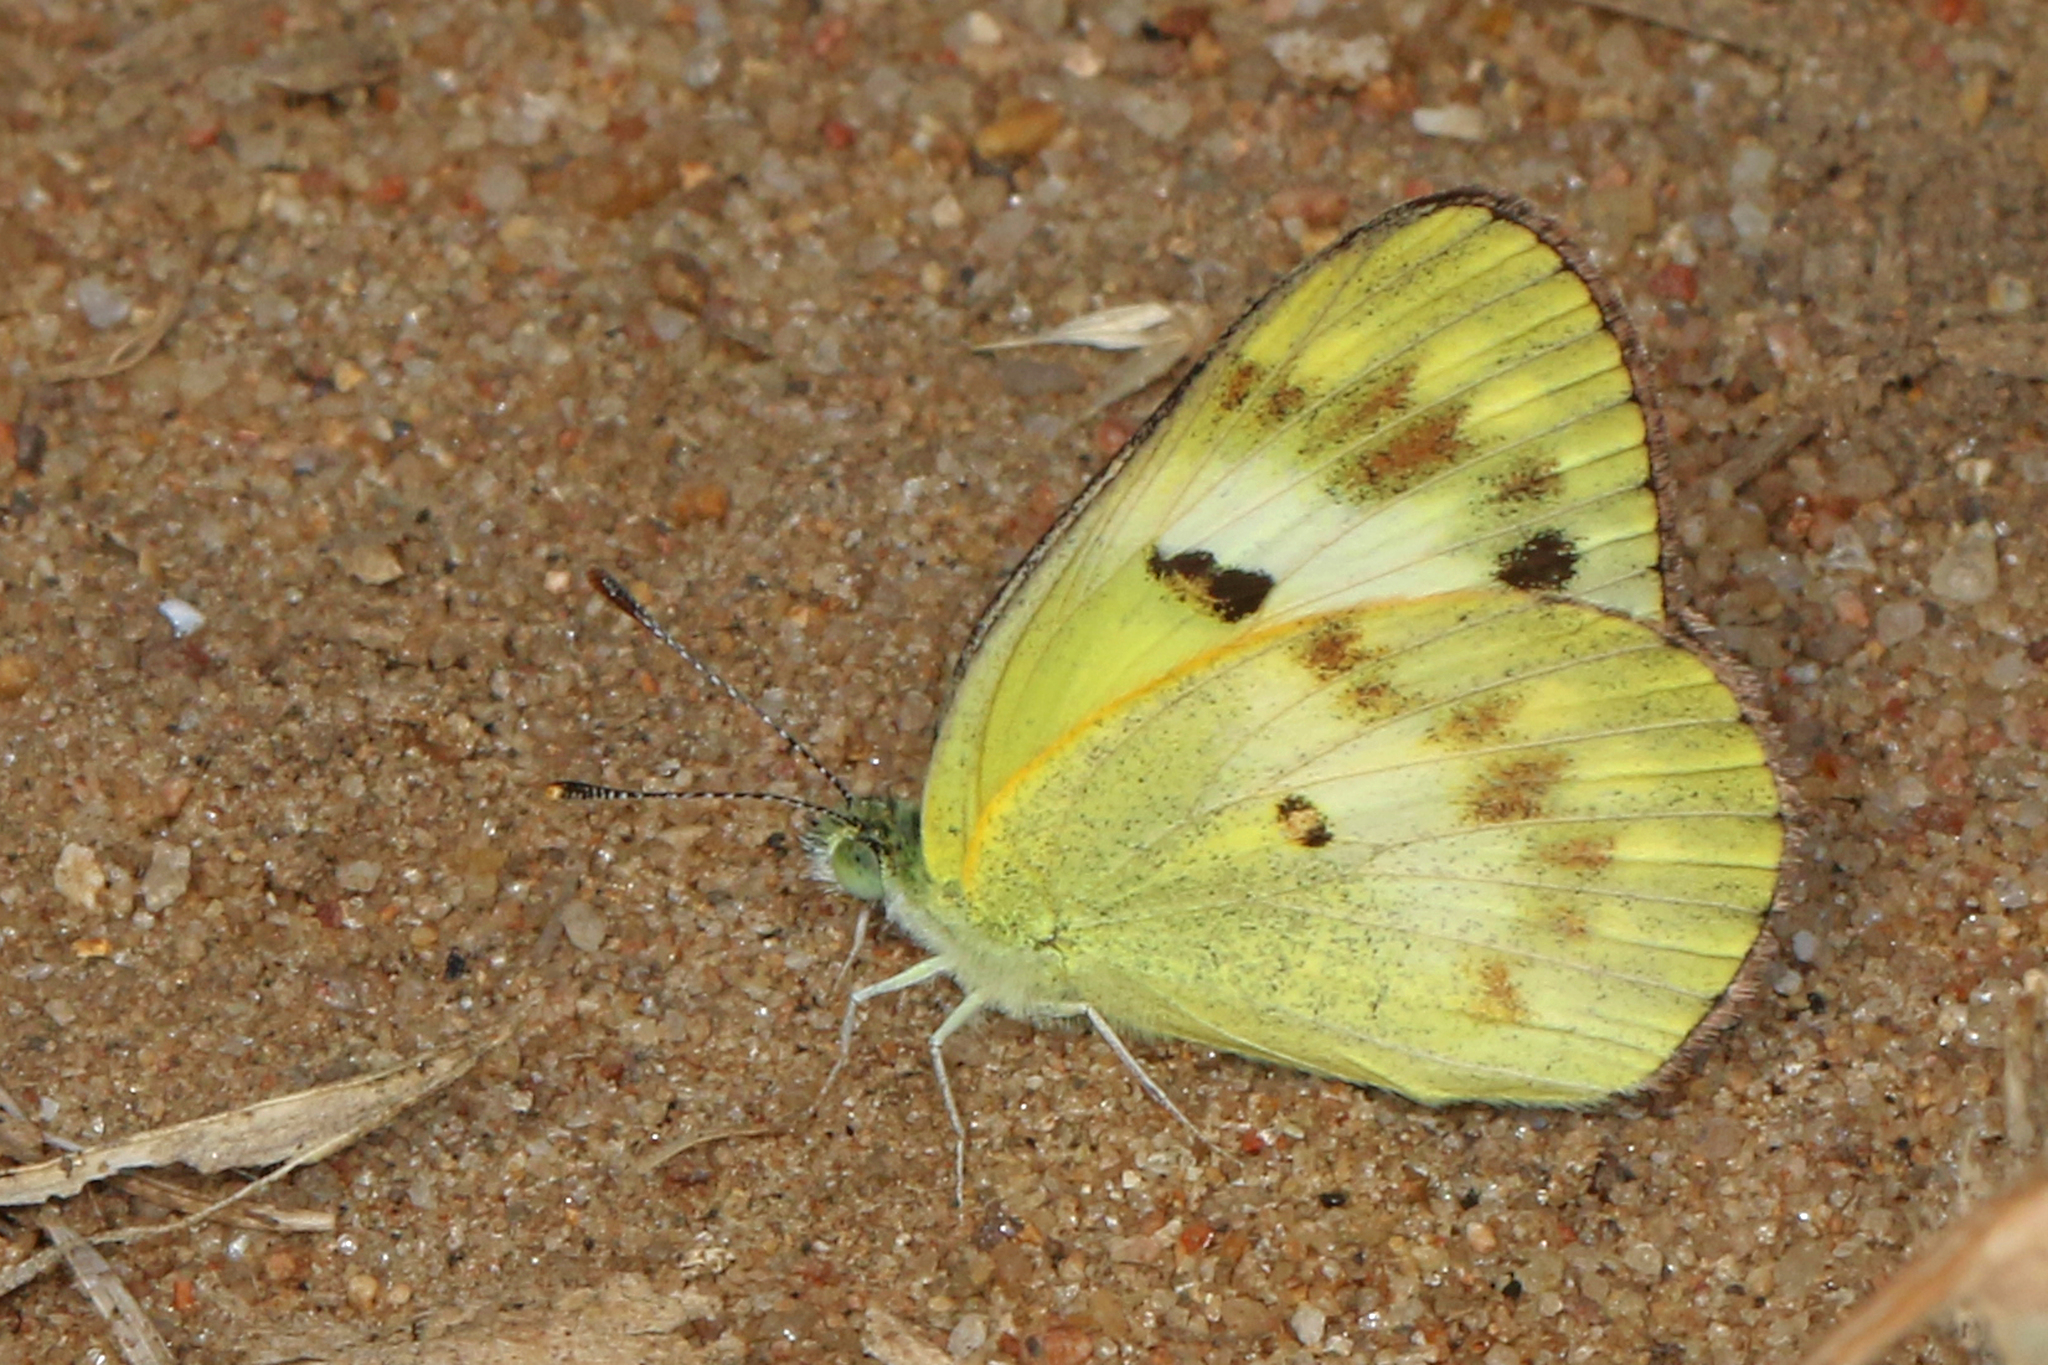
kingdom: Animalia
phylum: Arthropoda
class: Insecta
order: Lepidoptera
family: Pieridae
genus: Colotis
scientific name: Colotis amata
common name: Small salmon arab
